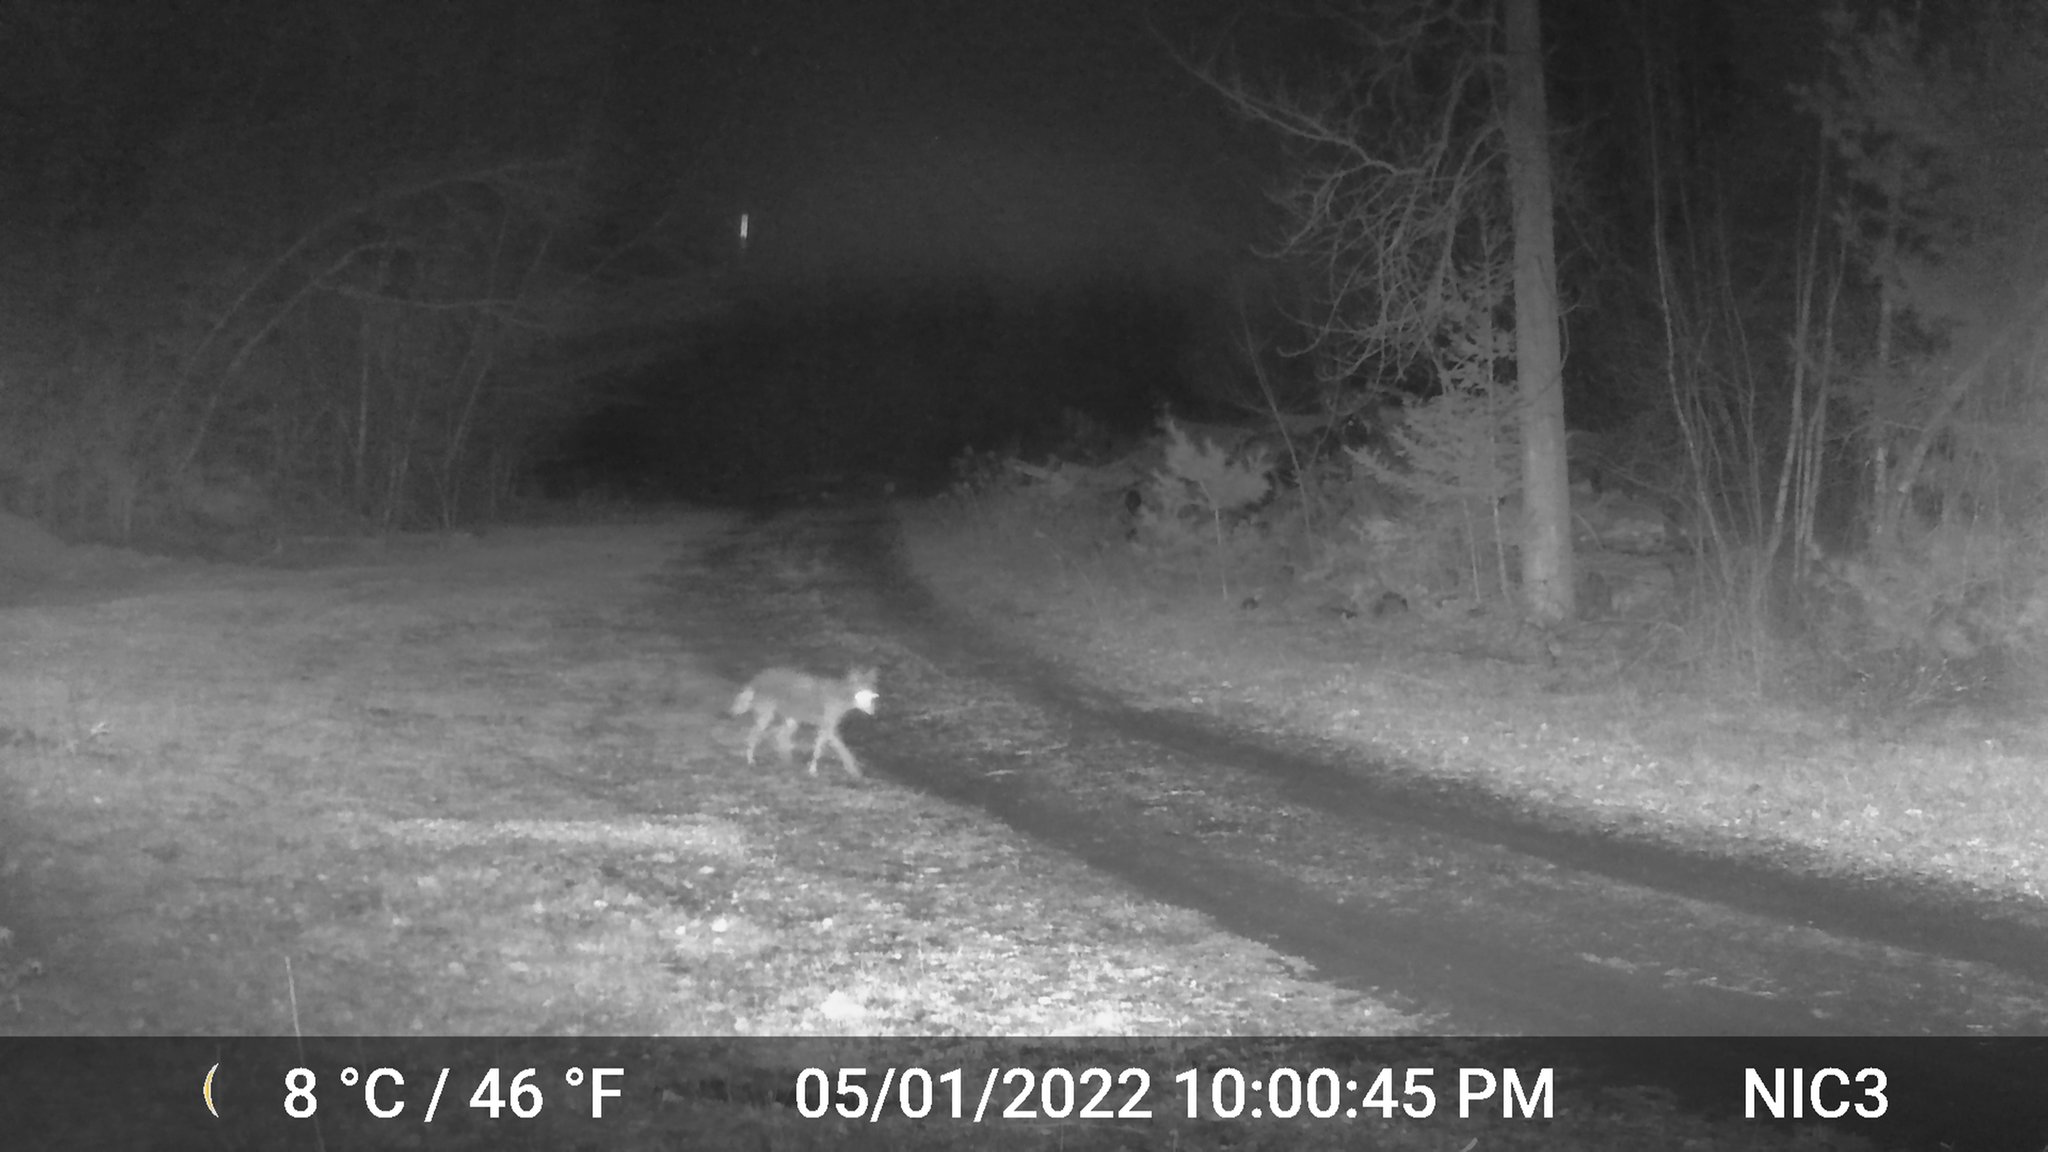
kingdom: Animalia
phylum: Chordata
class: Mammalia
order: Carnivora
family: Canidae
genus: Canis
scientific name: Canis latrans
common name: Coyote
